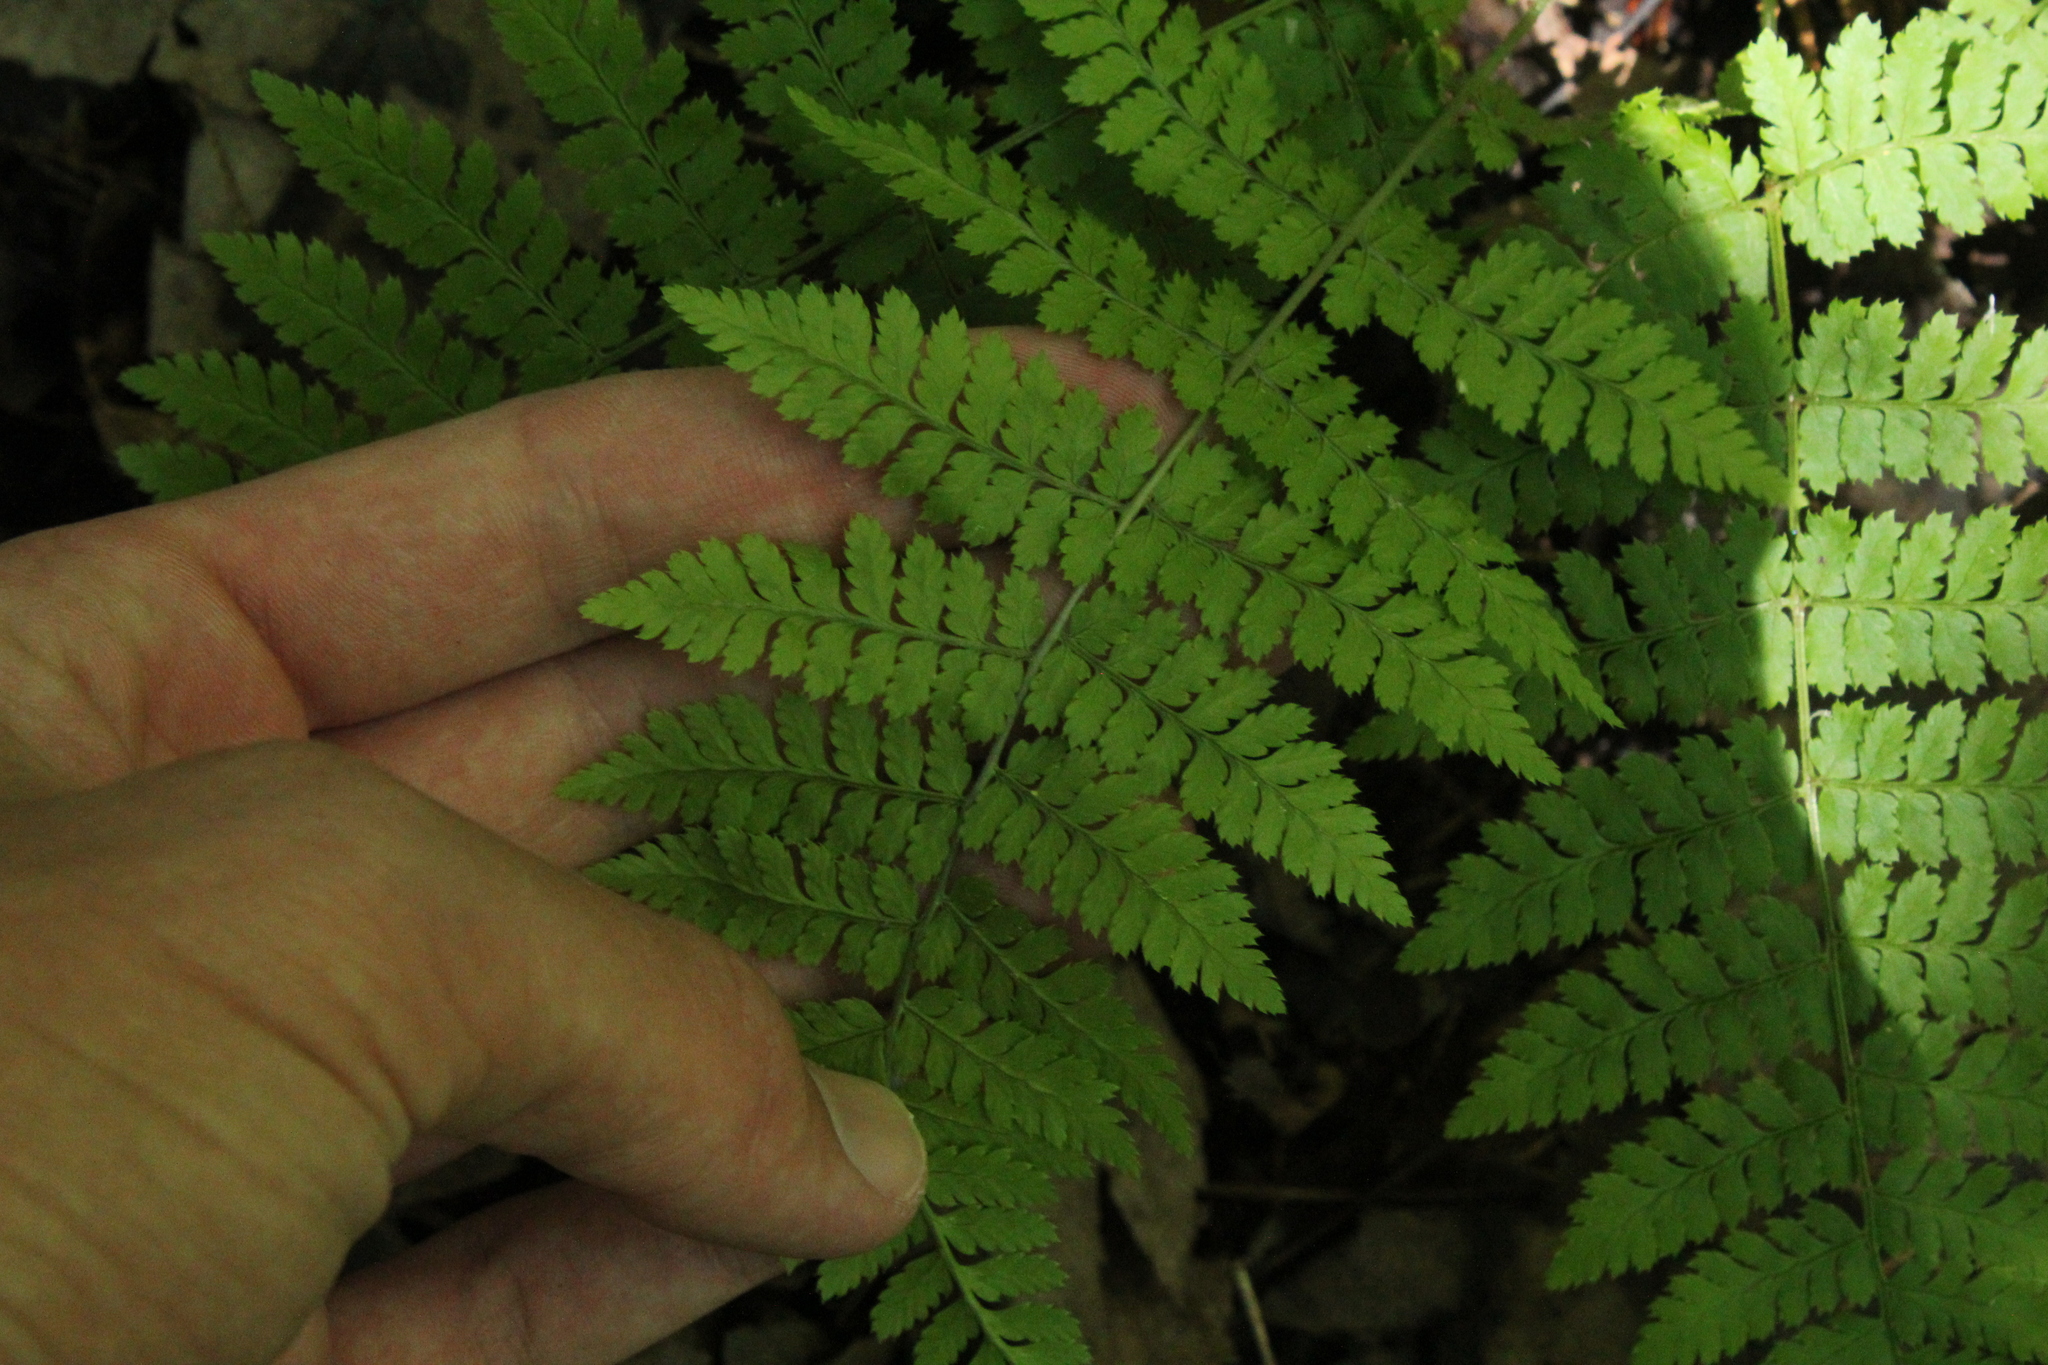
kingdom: Plantae
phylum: Tracheophyta
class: Polypodiopsida
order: Polypodiales
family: Dryopteridaceae
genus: Dryopteris
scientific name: Dryopteris intermedia
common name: Evergreen wood fern
